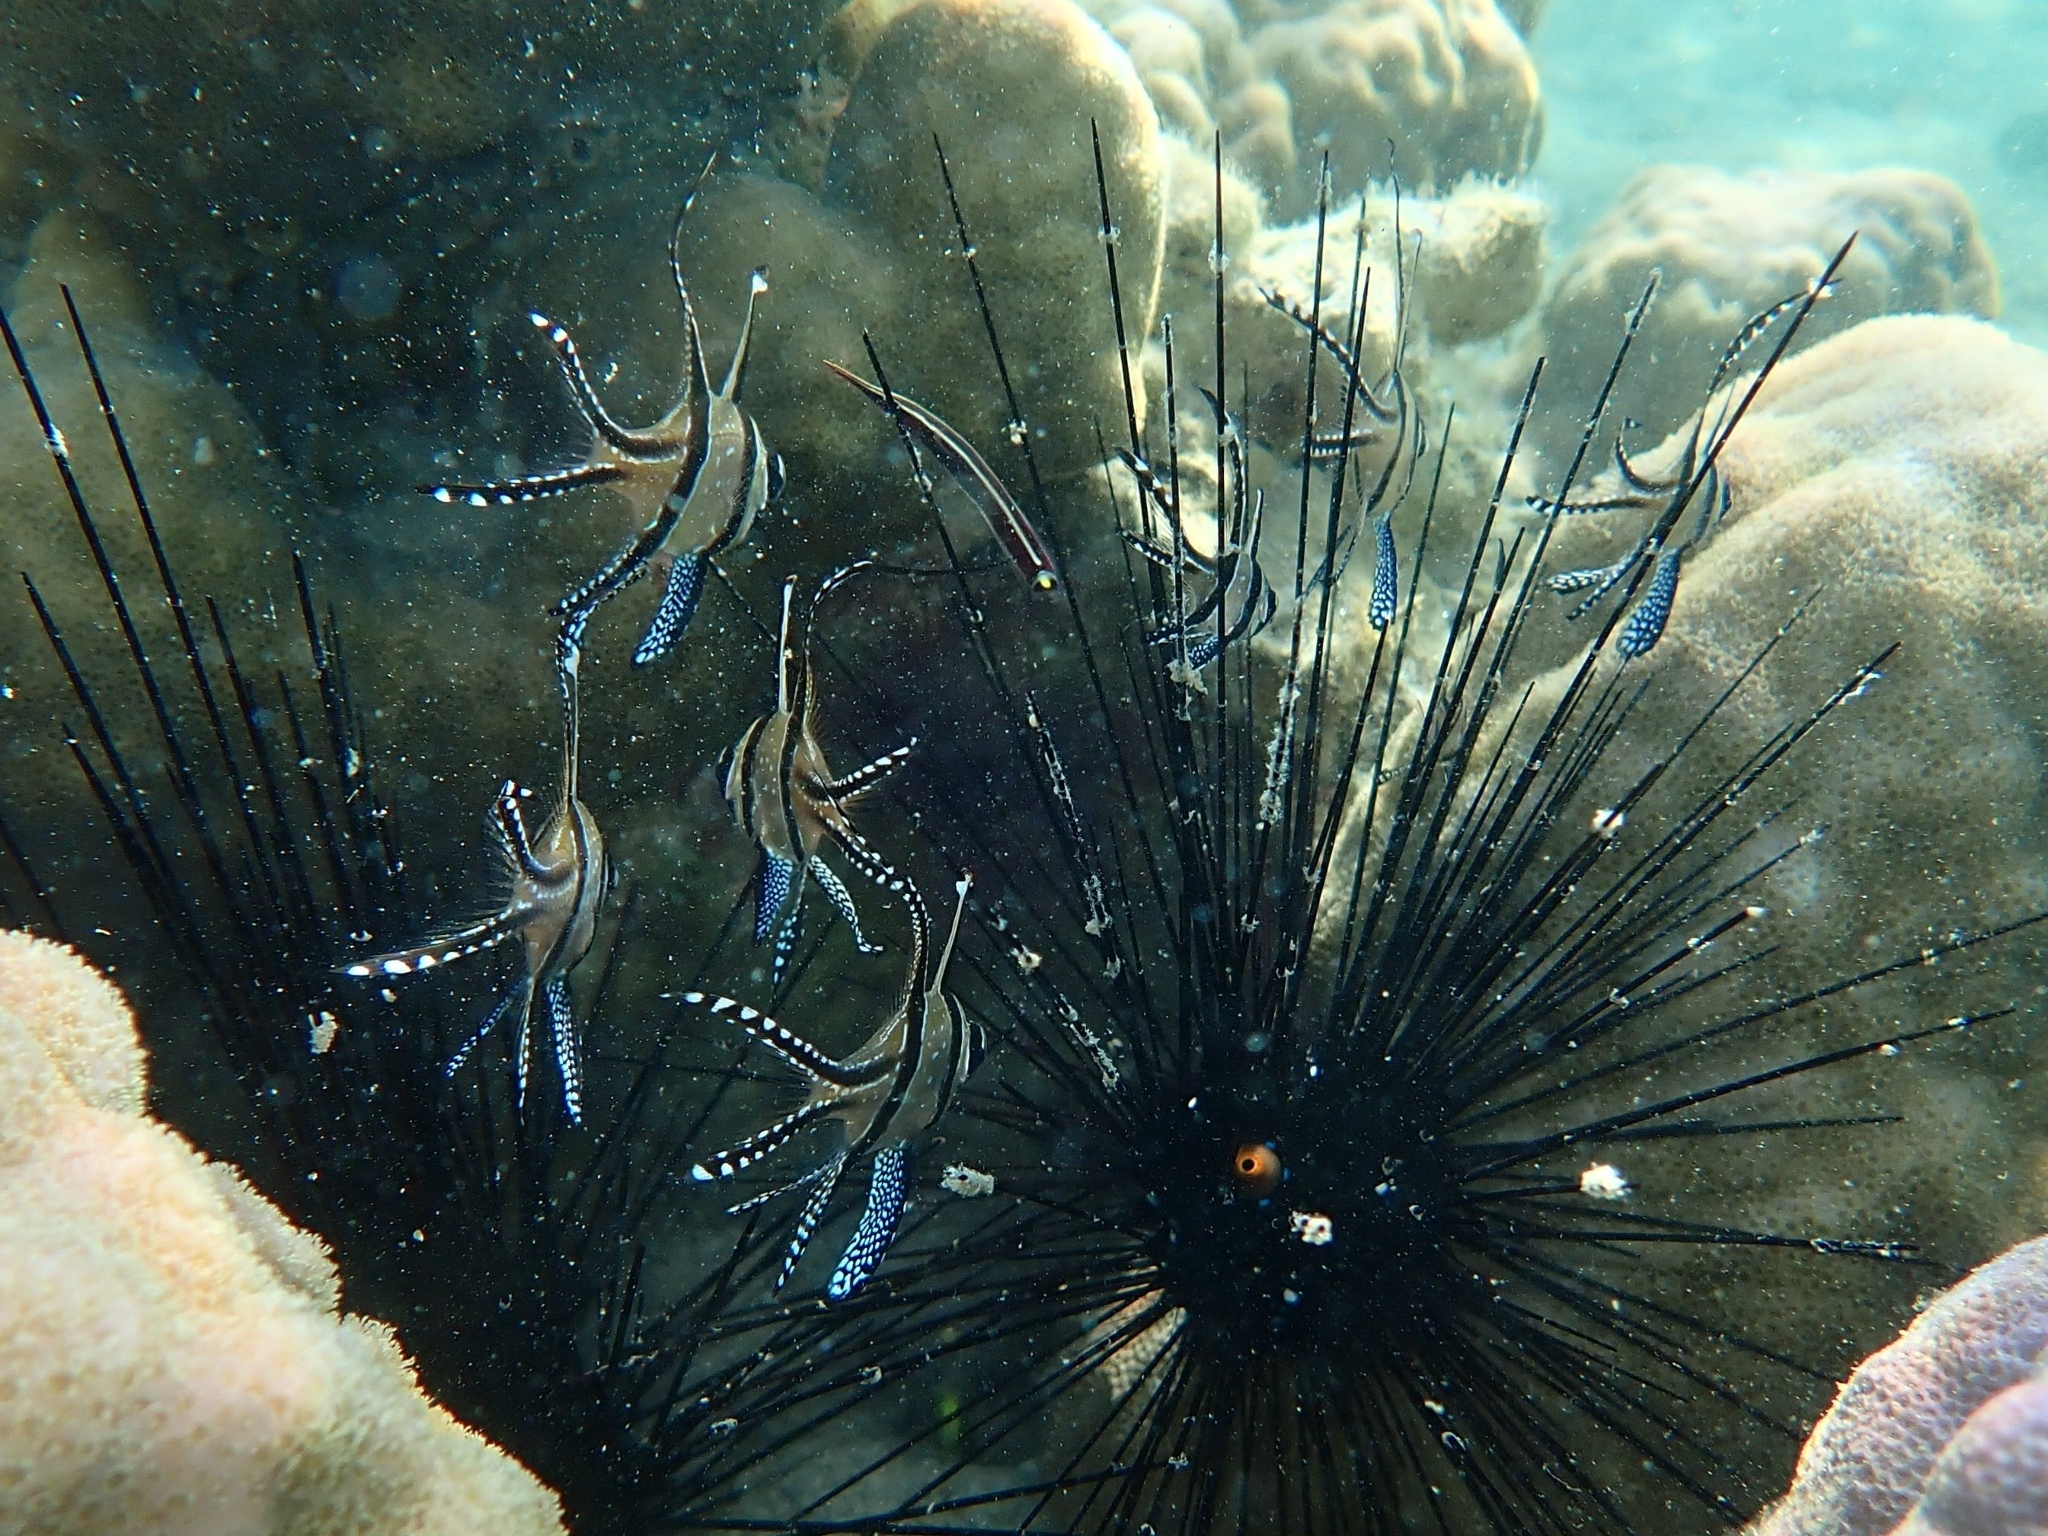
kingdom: Animalia
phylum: Chordata
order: Perciformes
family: Apogonidae
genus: Pterapogon
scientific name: Pterapogon kauderni
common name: Banggai cardinalfish
